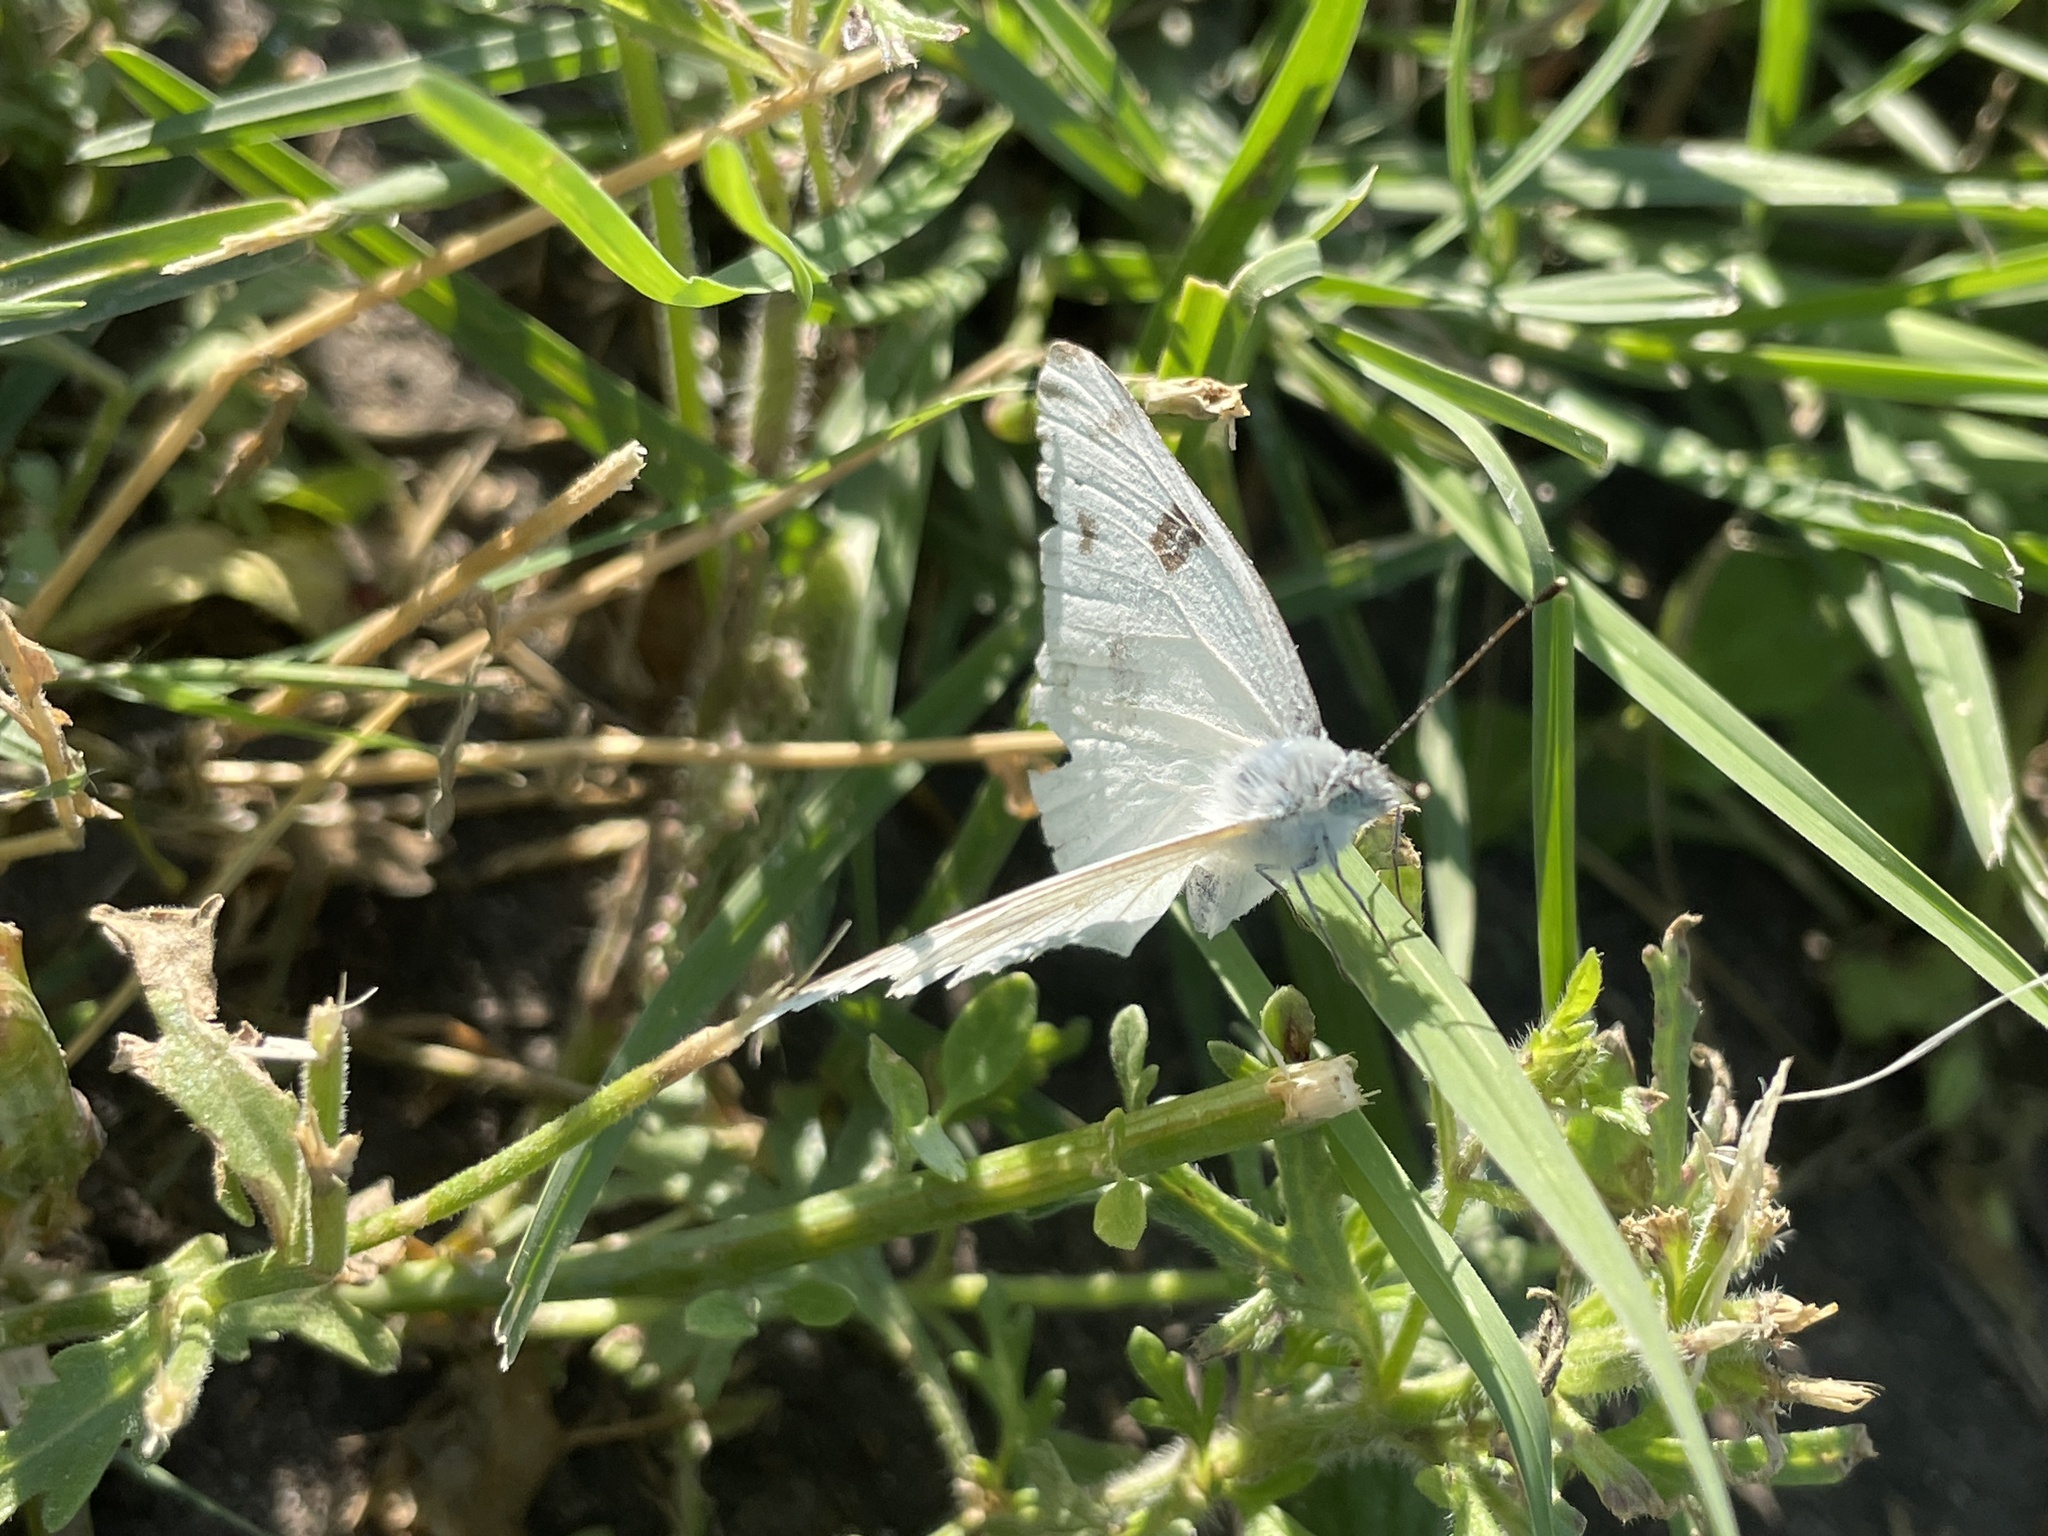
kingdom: Animalia
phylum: Arthropoda
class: Insecta
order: Lepidoptera
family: Pieridae
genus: Pontia
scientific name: Pontia protodice
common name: Checkered white
